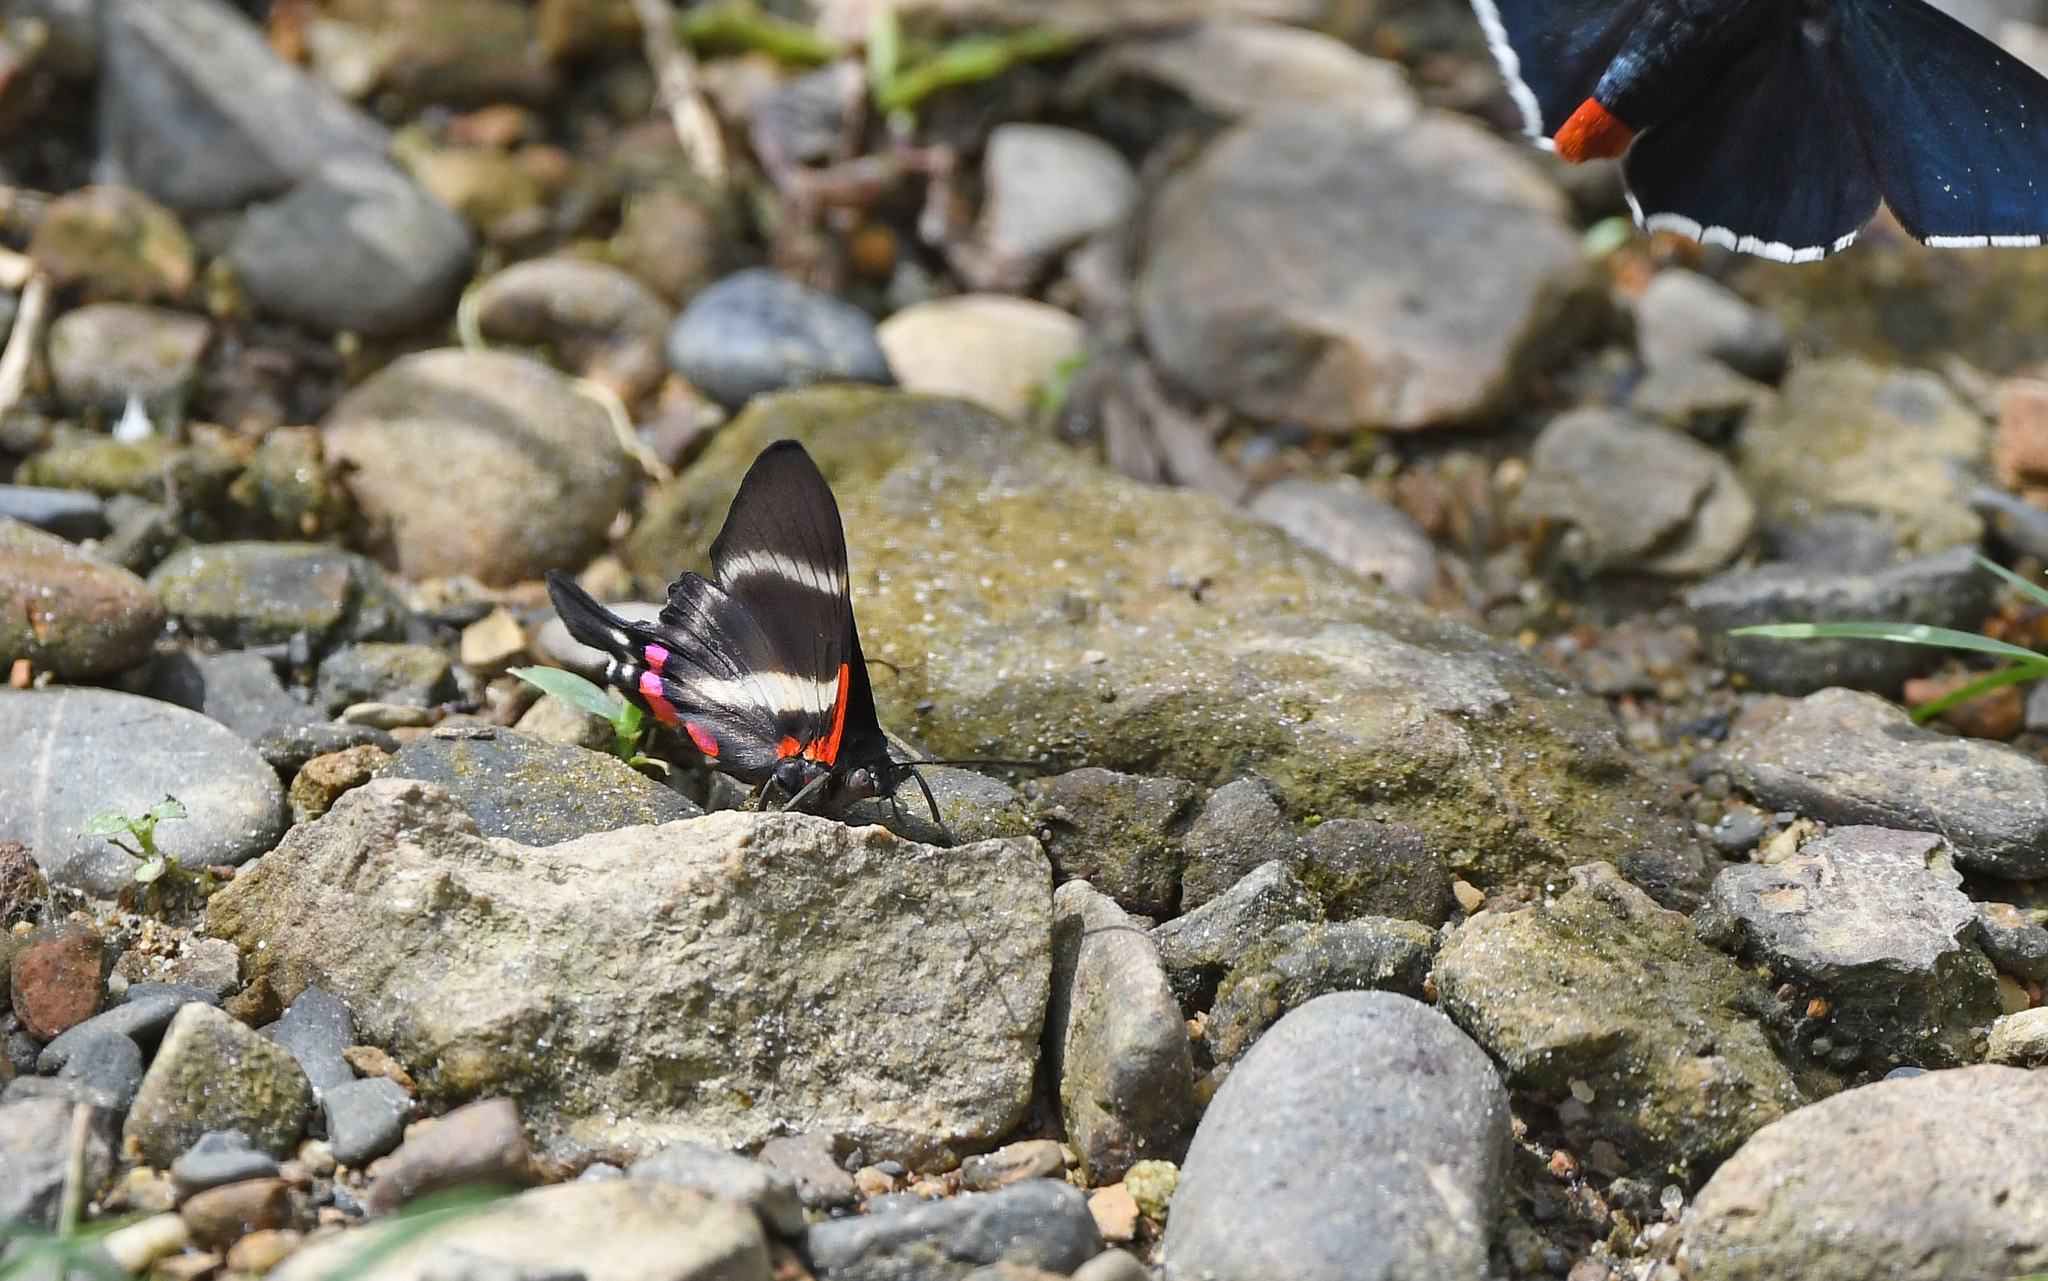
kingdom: Animalia
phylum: Arthropoda
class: Insecta
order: Lepidoptera
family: Riodinidae
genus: Rhetus
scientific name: Rhetus periander
